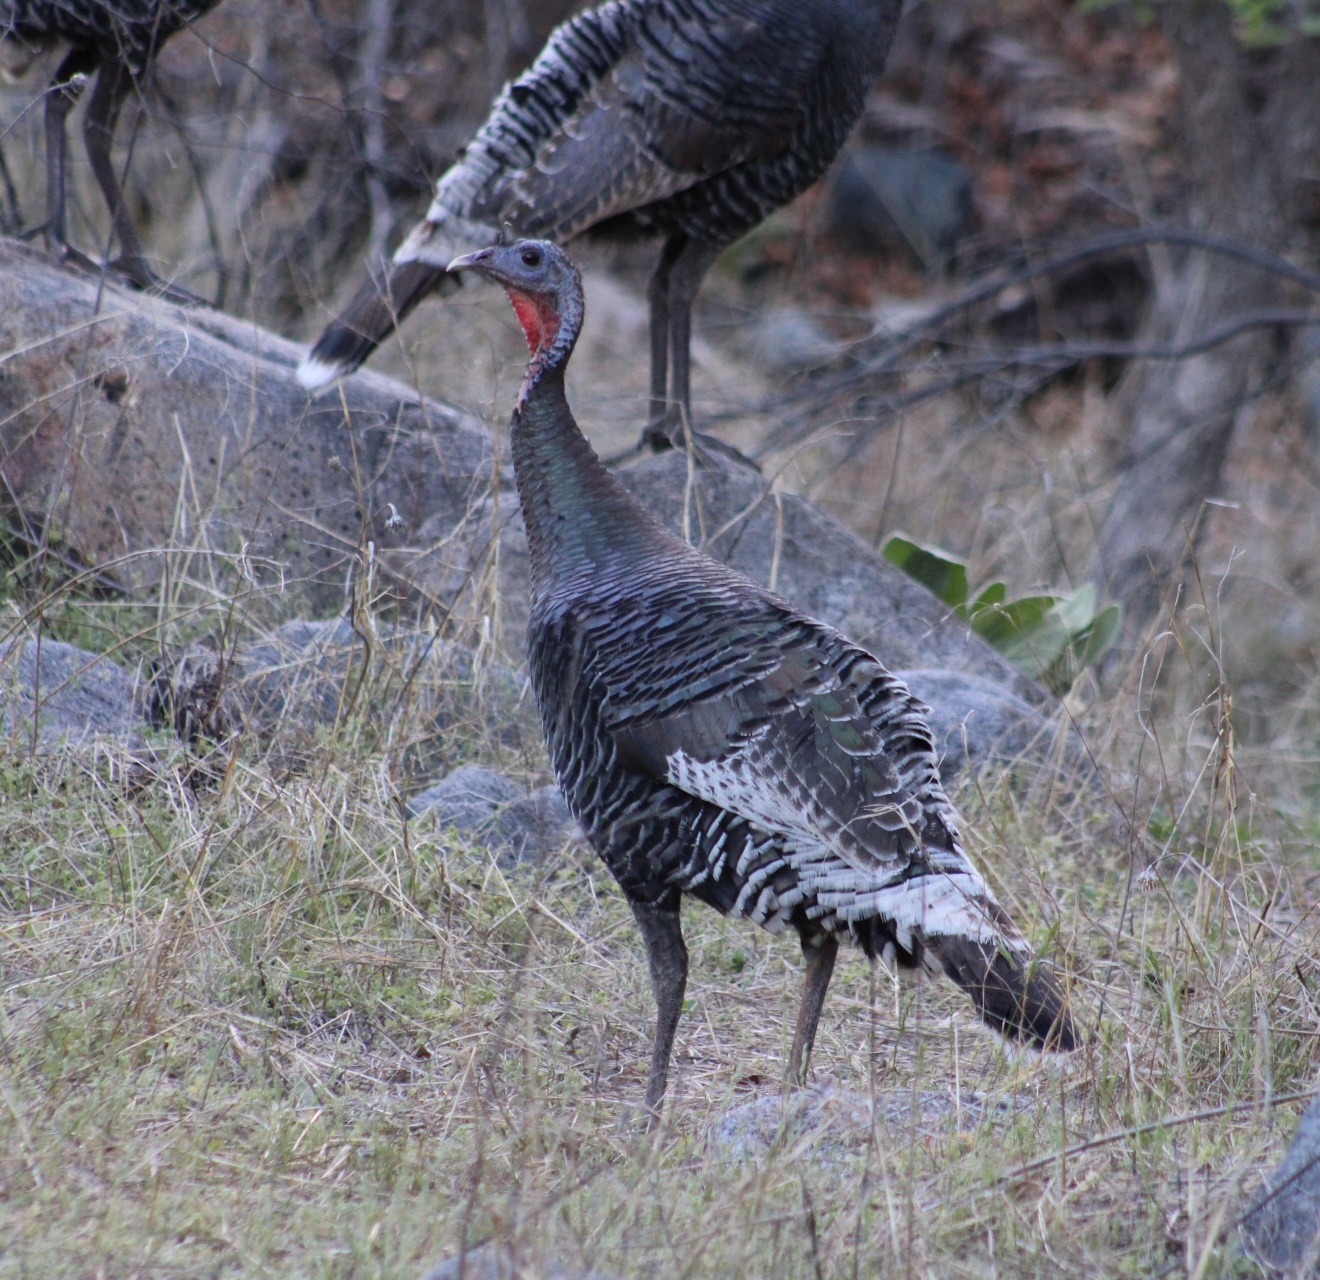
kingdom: Animalia
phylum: Chordata
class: Aves
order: Galliformes
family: Phasianidae
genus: Meleagris
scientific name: Meleagris gallopavo
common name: Wild turkey
